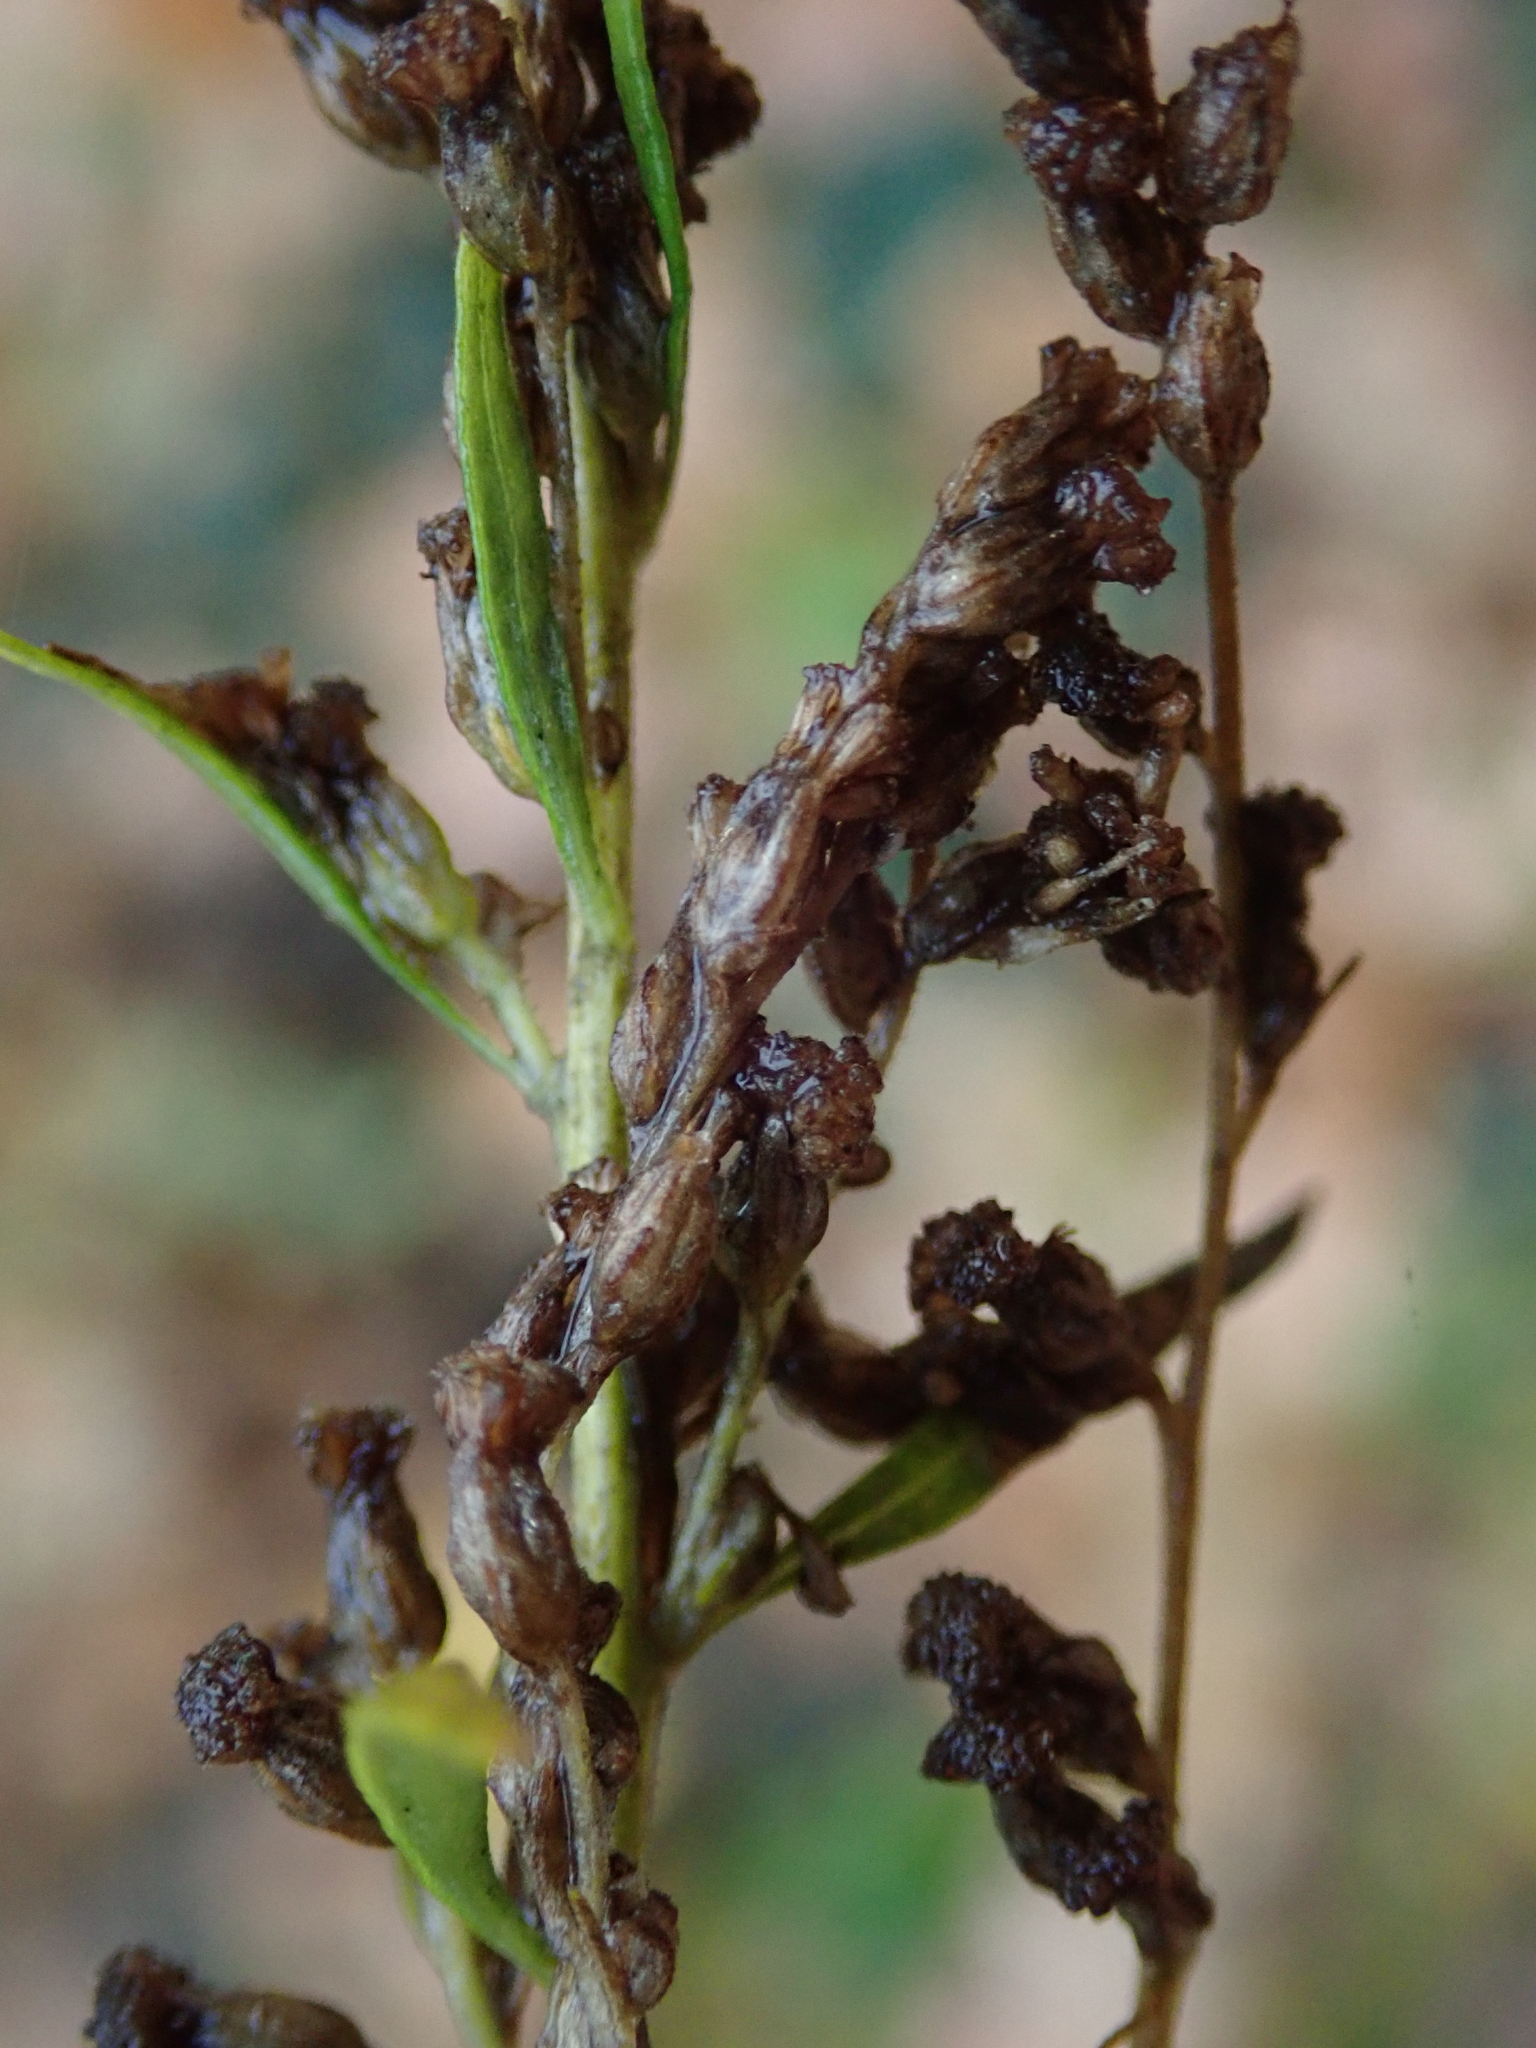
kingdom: Plantae
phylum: Tracheophyta
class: Magnoliopsida
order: Asterales
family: Asteraceae
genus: Artemisia
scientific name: Artemisia vulgaris
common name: Mugwort
